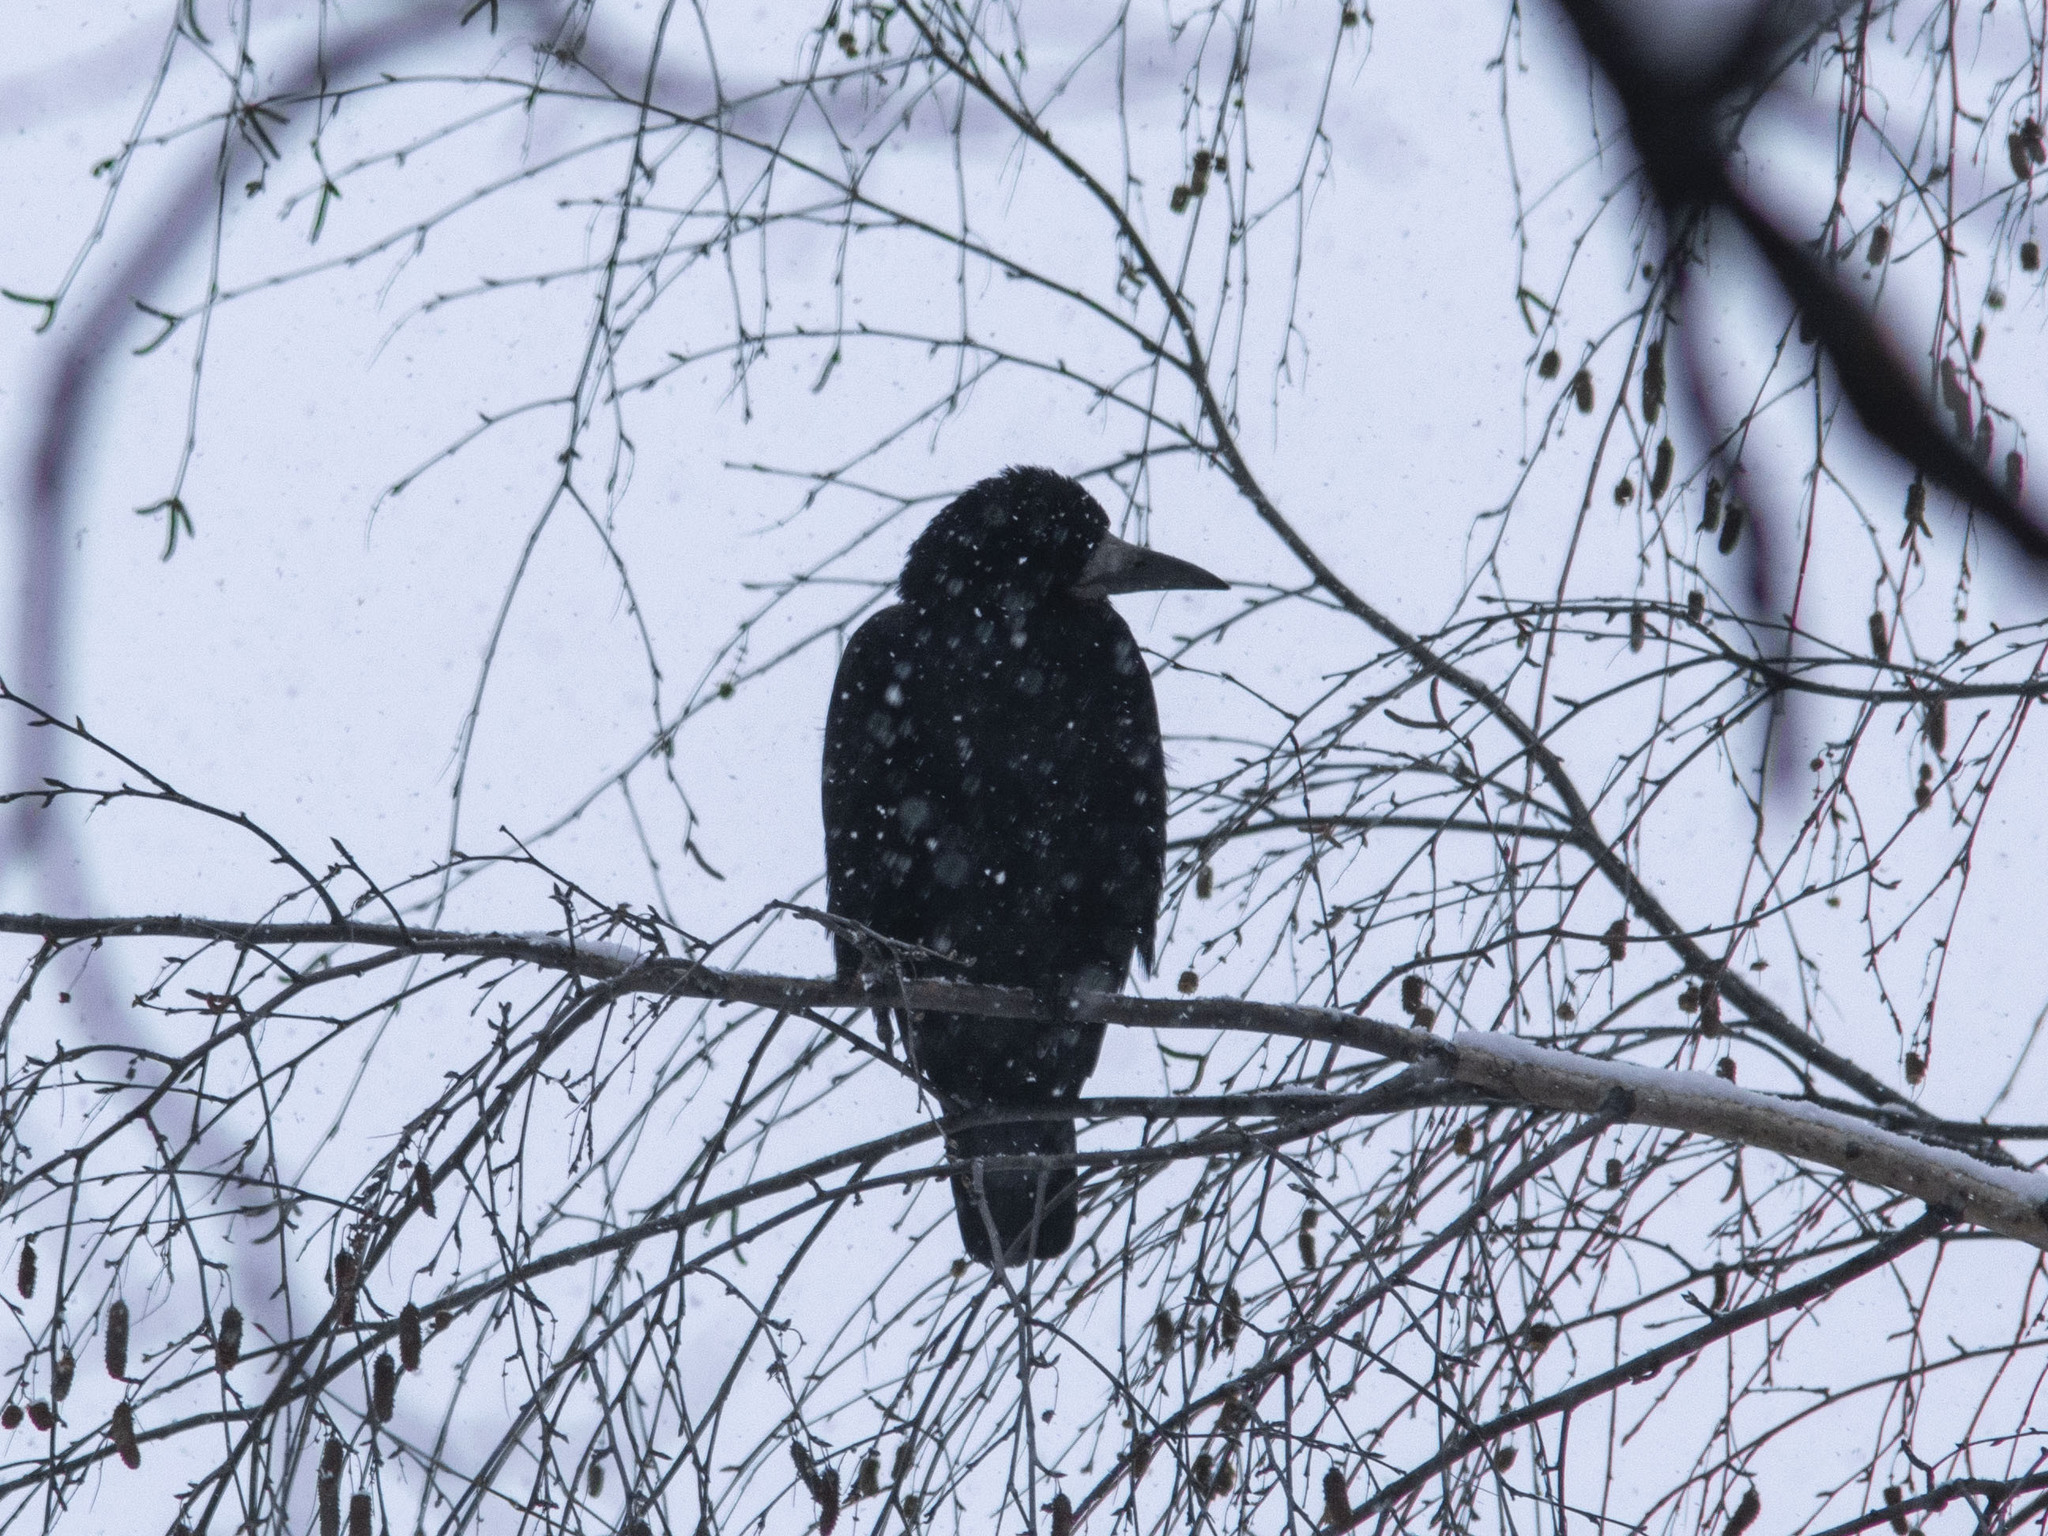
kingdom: Animalia
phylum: Chordata
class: Aves
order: Passeriformes
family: Corvidae
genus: Corvus
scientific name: Corvus frugilegus
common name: Rook
